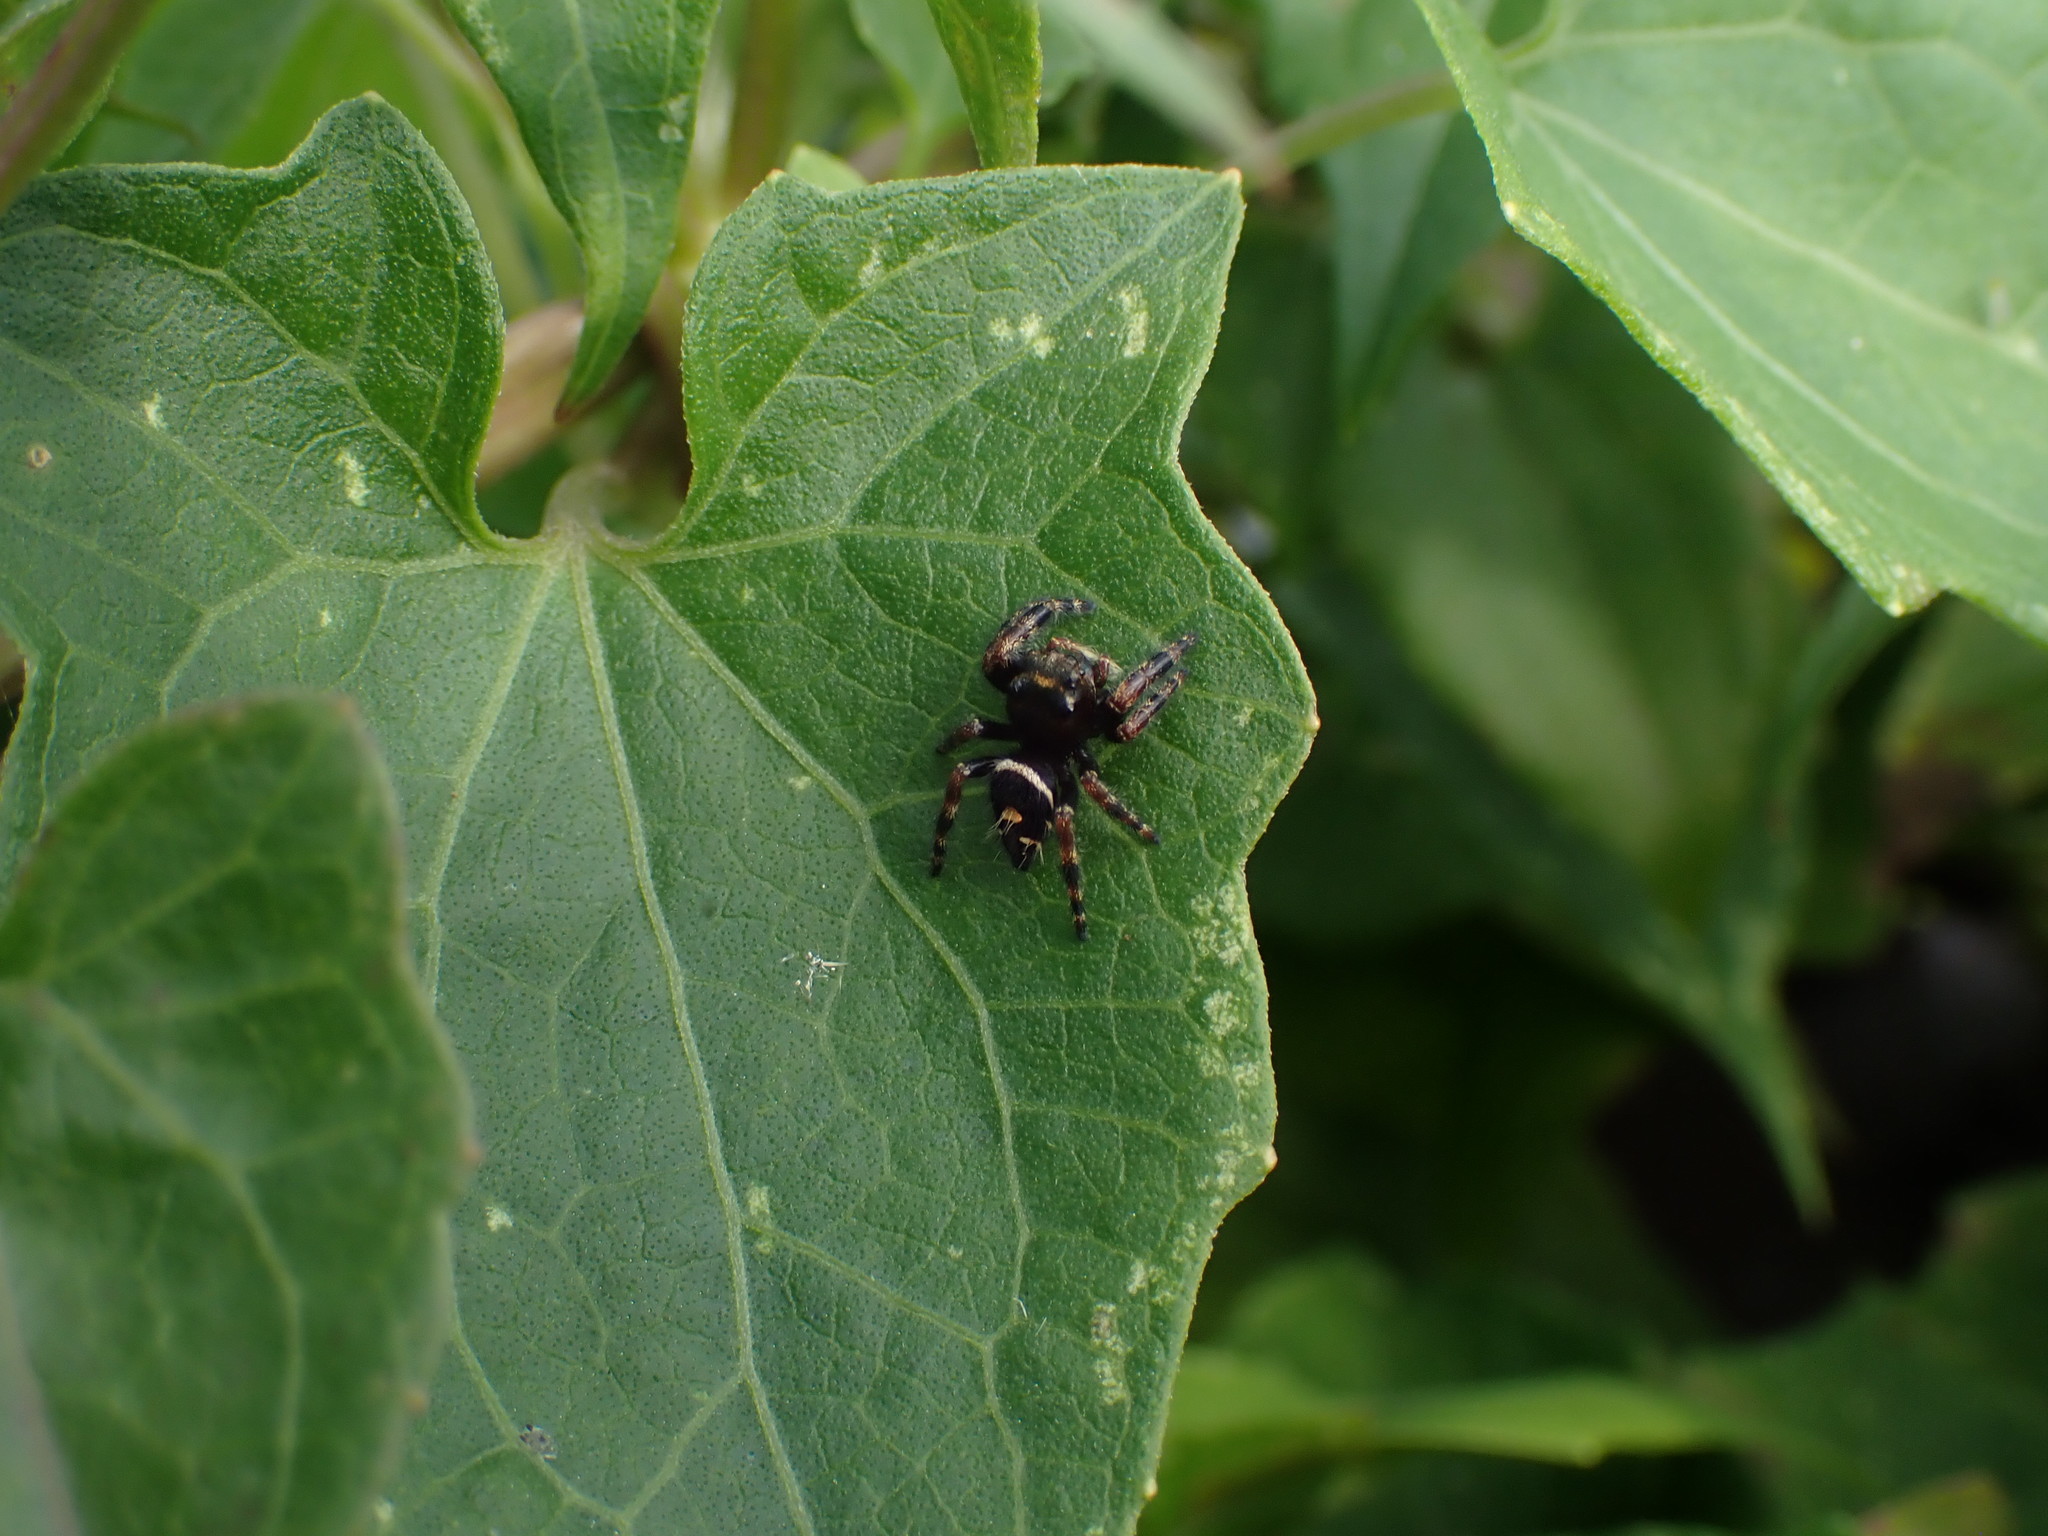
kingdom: Animalia
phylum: Arthropoda
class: Arachnida
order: Araneae
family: Salticidae
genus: Phidippus
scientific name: Phidippus audax
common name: Bold jumper
